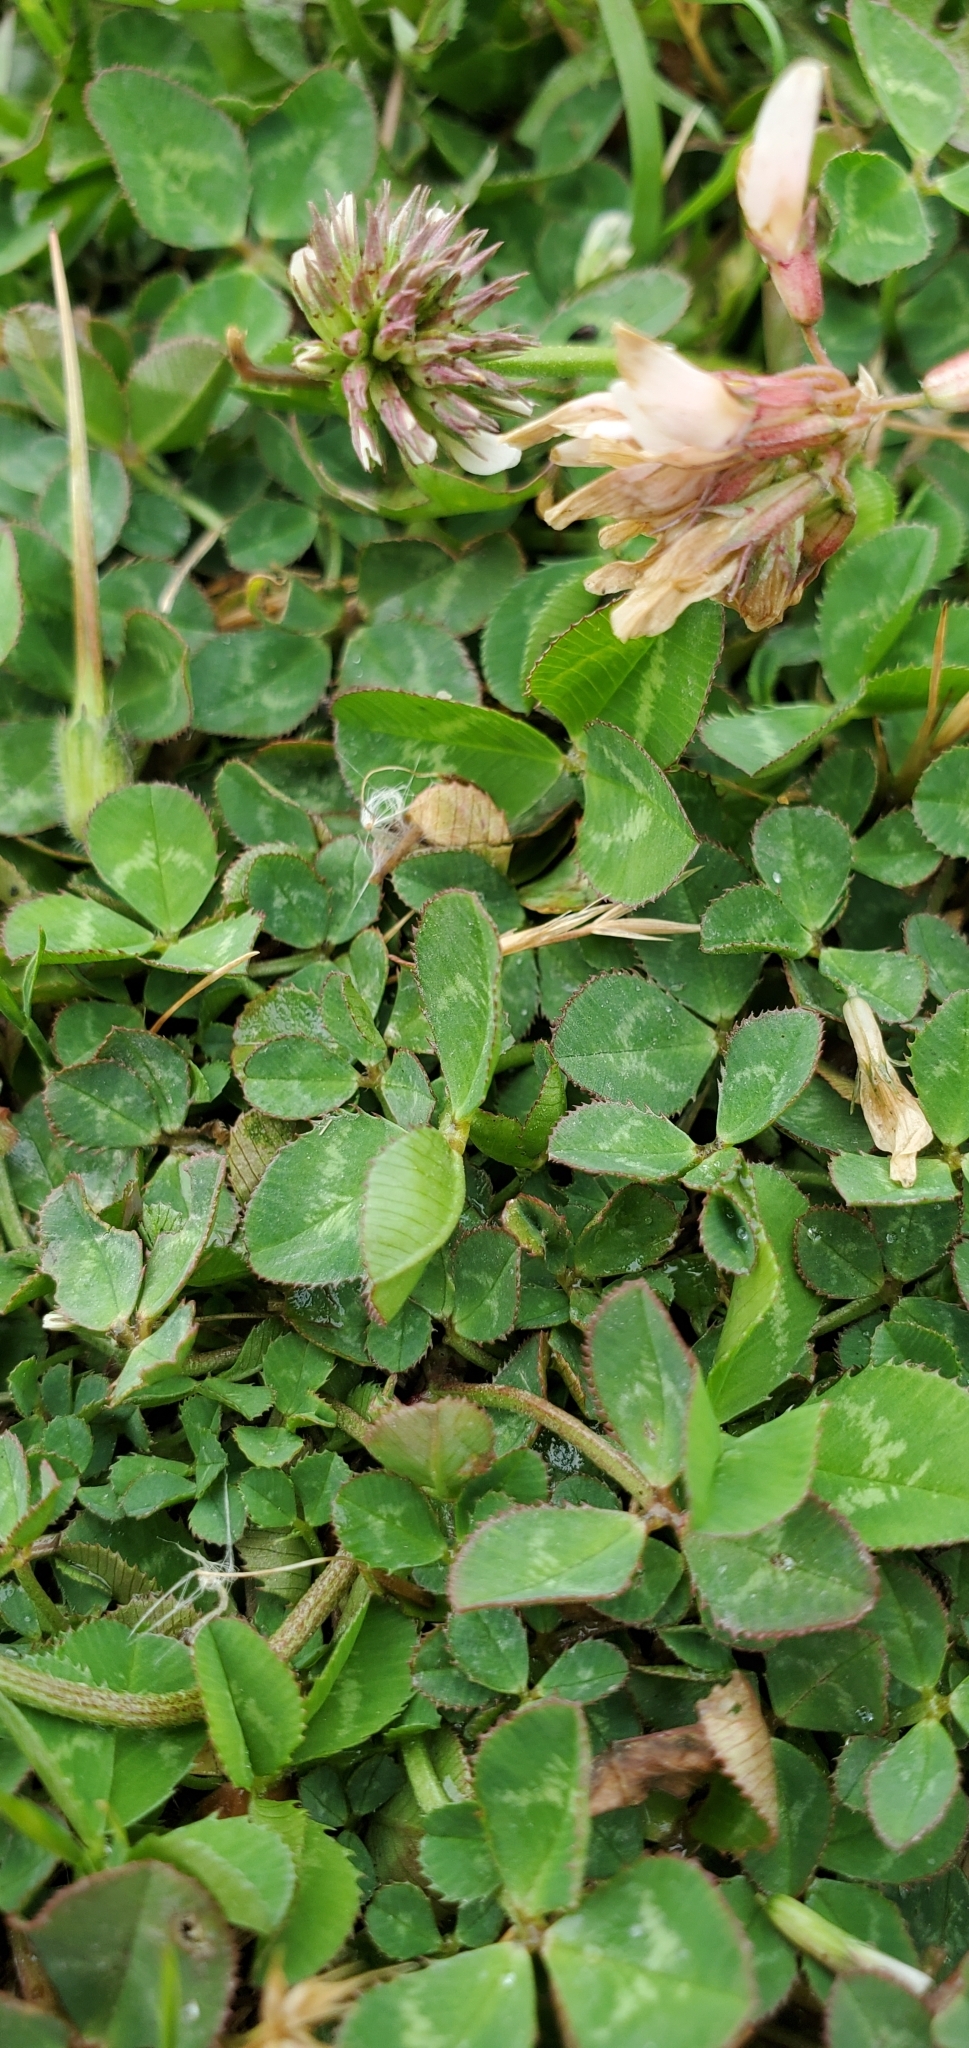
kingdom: Plantae
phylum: Tracheophyta
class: Magnoliopsida
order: Fabales
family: Fabaceae
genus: Trifolium
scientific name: Trifolium repens
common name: White clover
